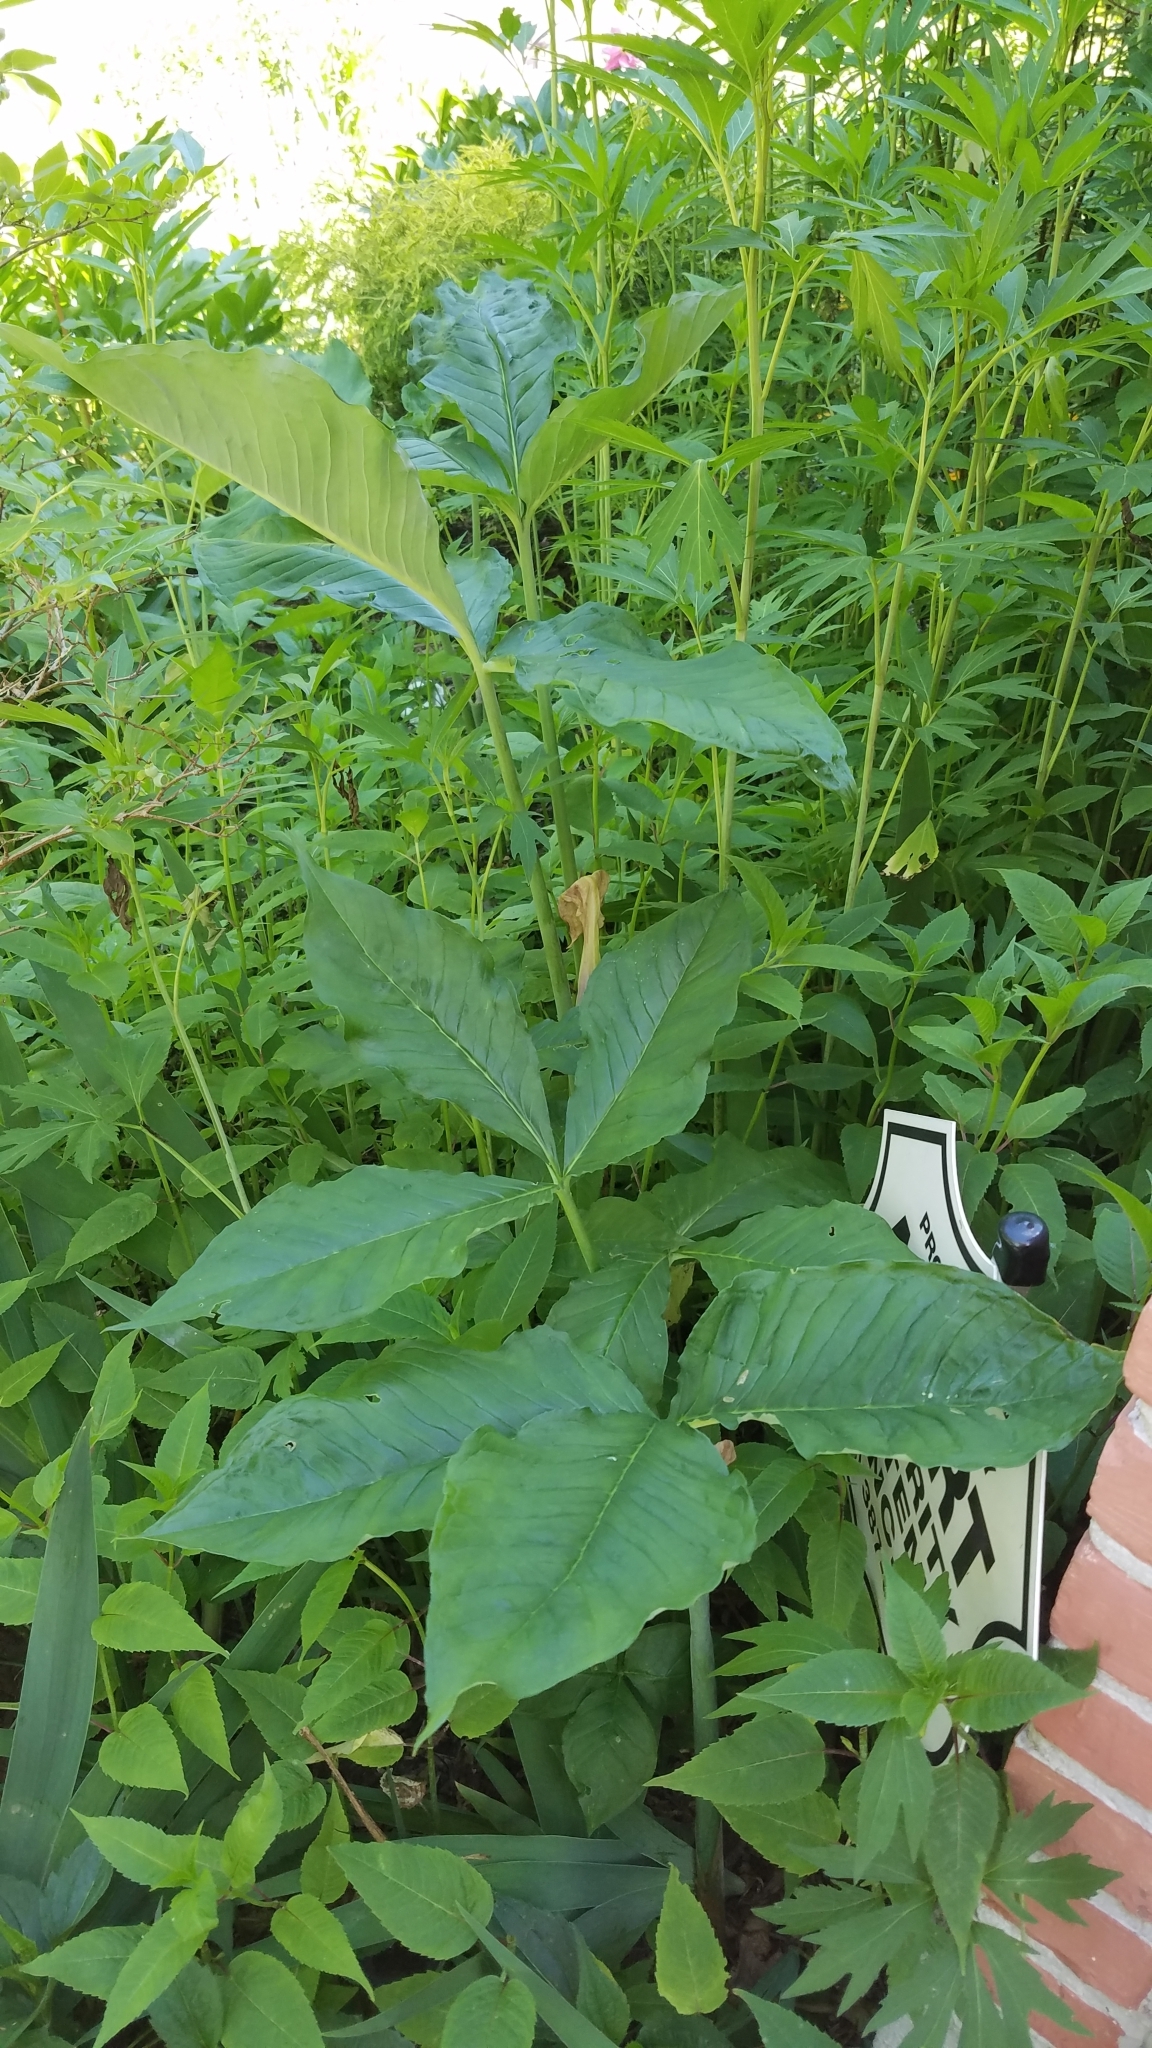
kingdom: Plantae
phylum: Tracheophyta
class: Liliopsida
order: Alismatales
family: Araceae
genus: Arisaema
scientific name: Arisaema triphyllum
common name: Jack-in-the-pulpit
